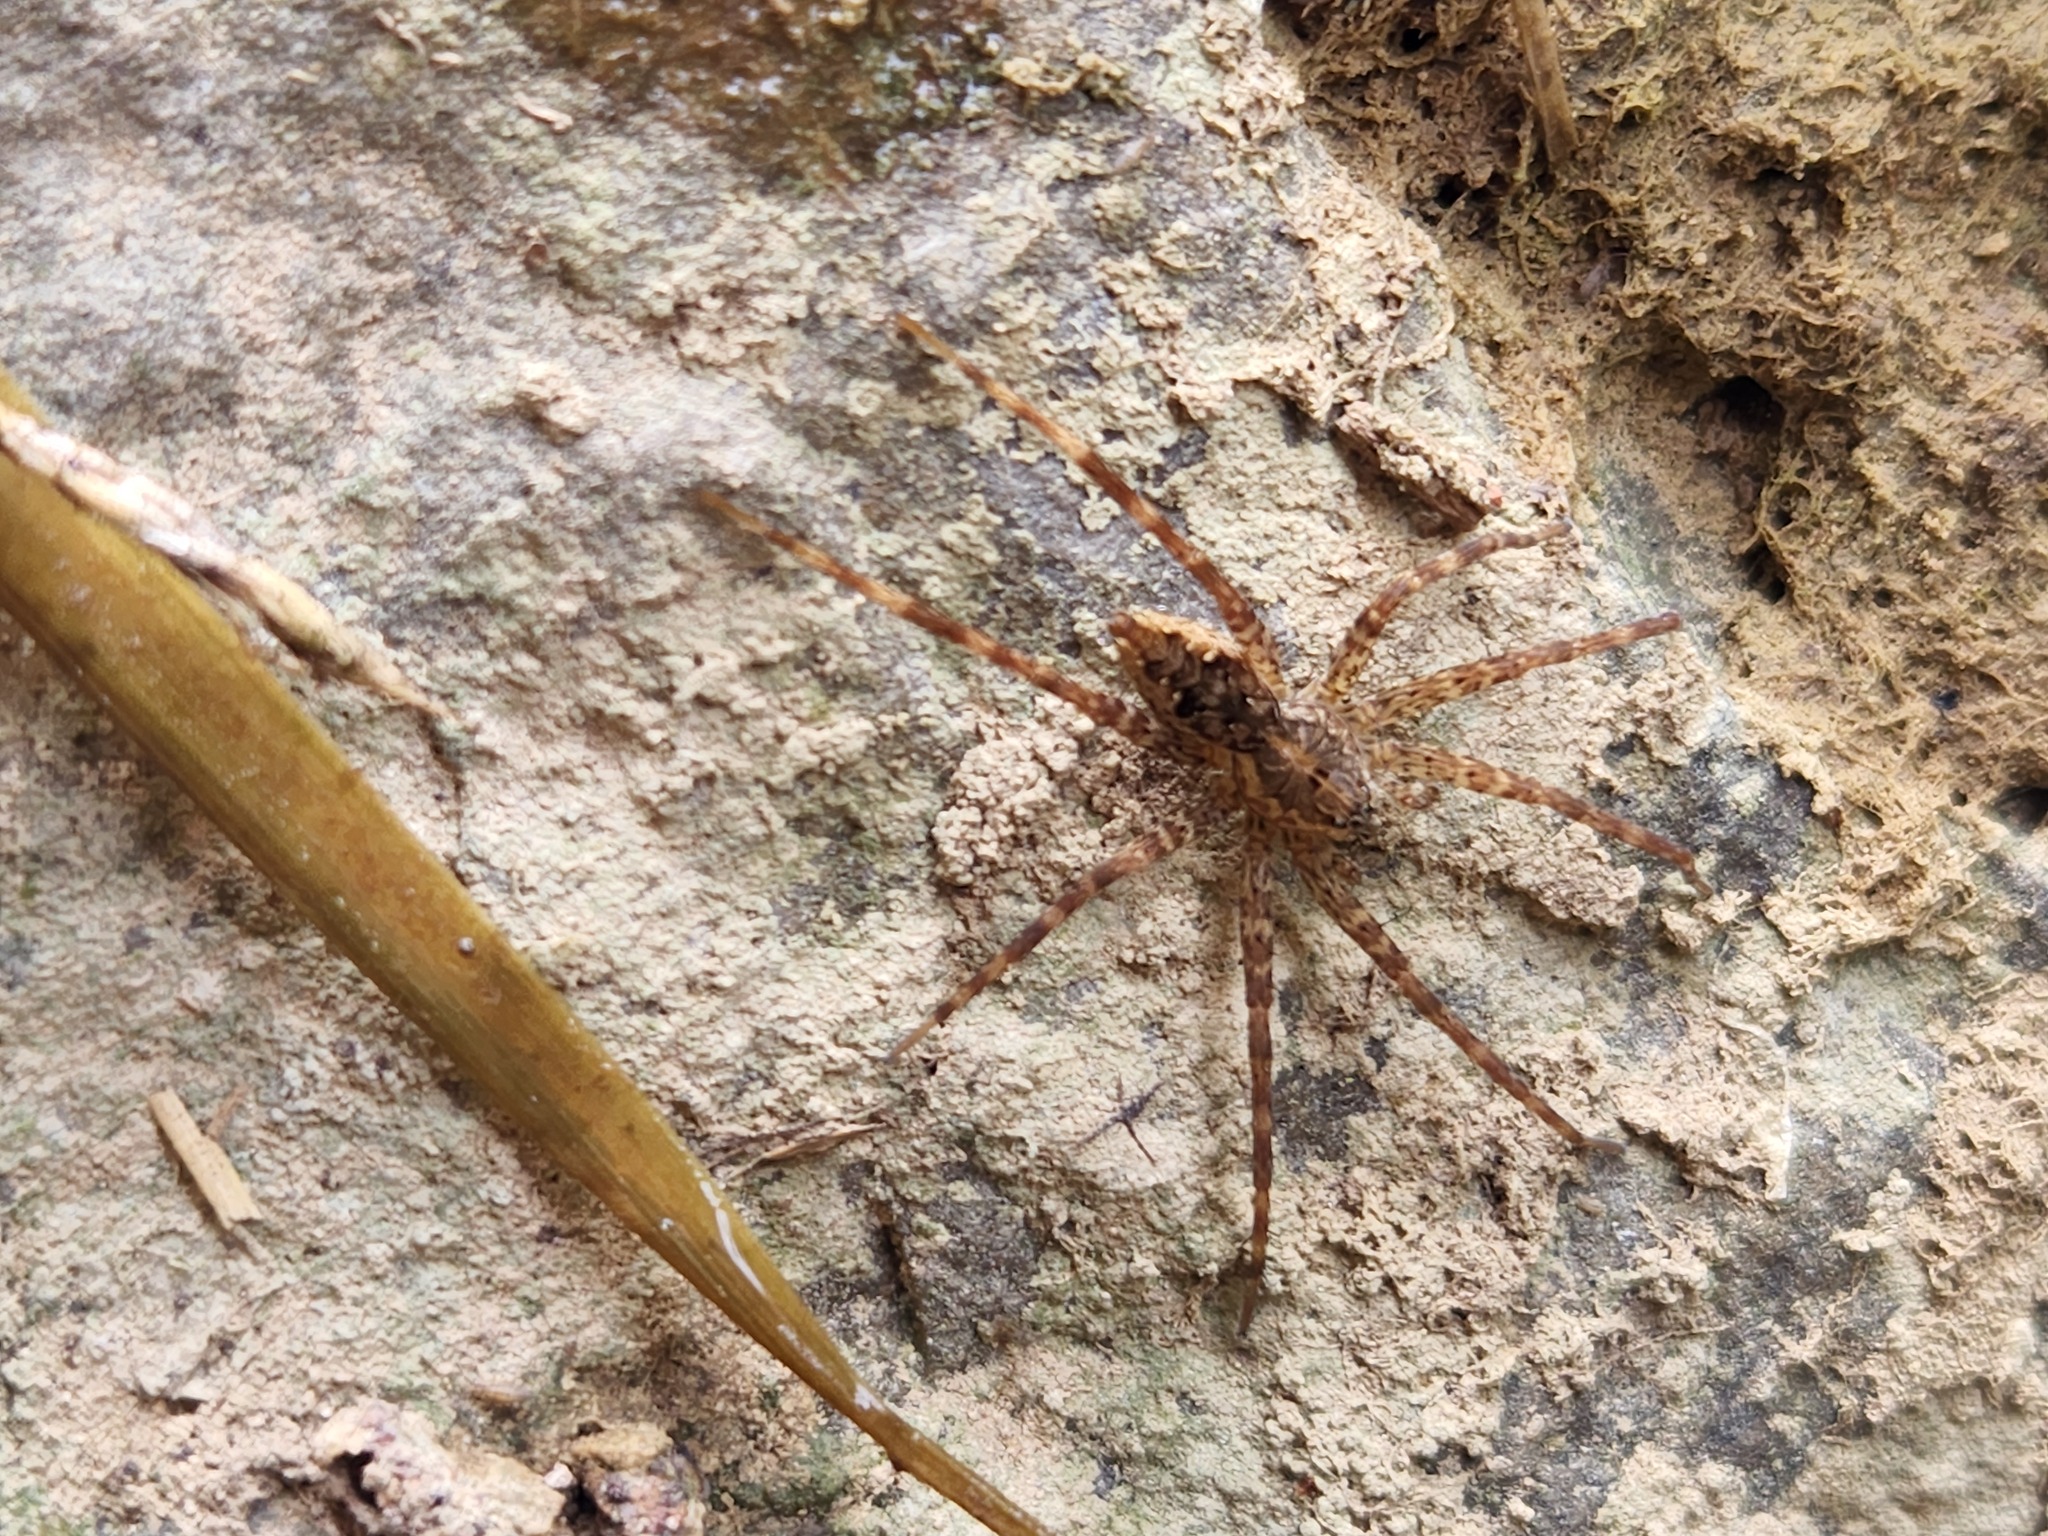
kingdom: Animalia
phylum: Arthropoda
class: Arachnida
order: Araneae
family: Pisauridae
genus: Dolomedes
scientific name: Dolomedes vittatus
